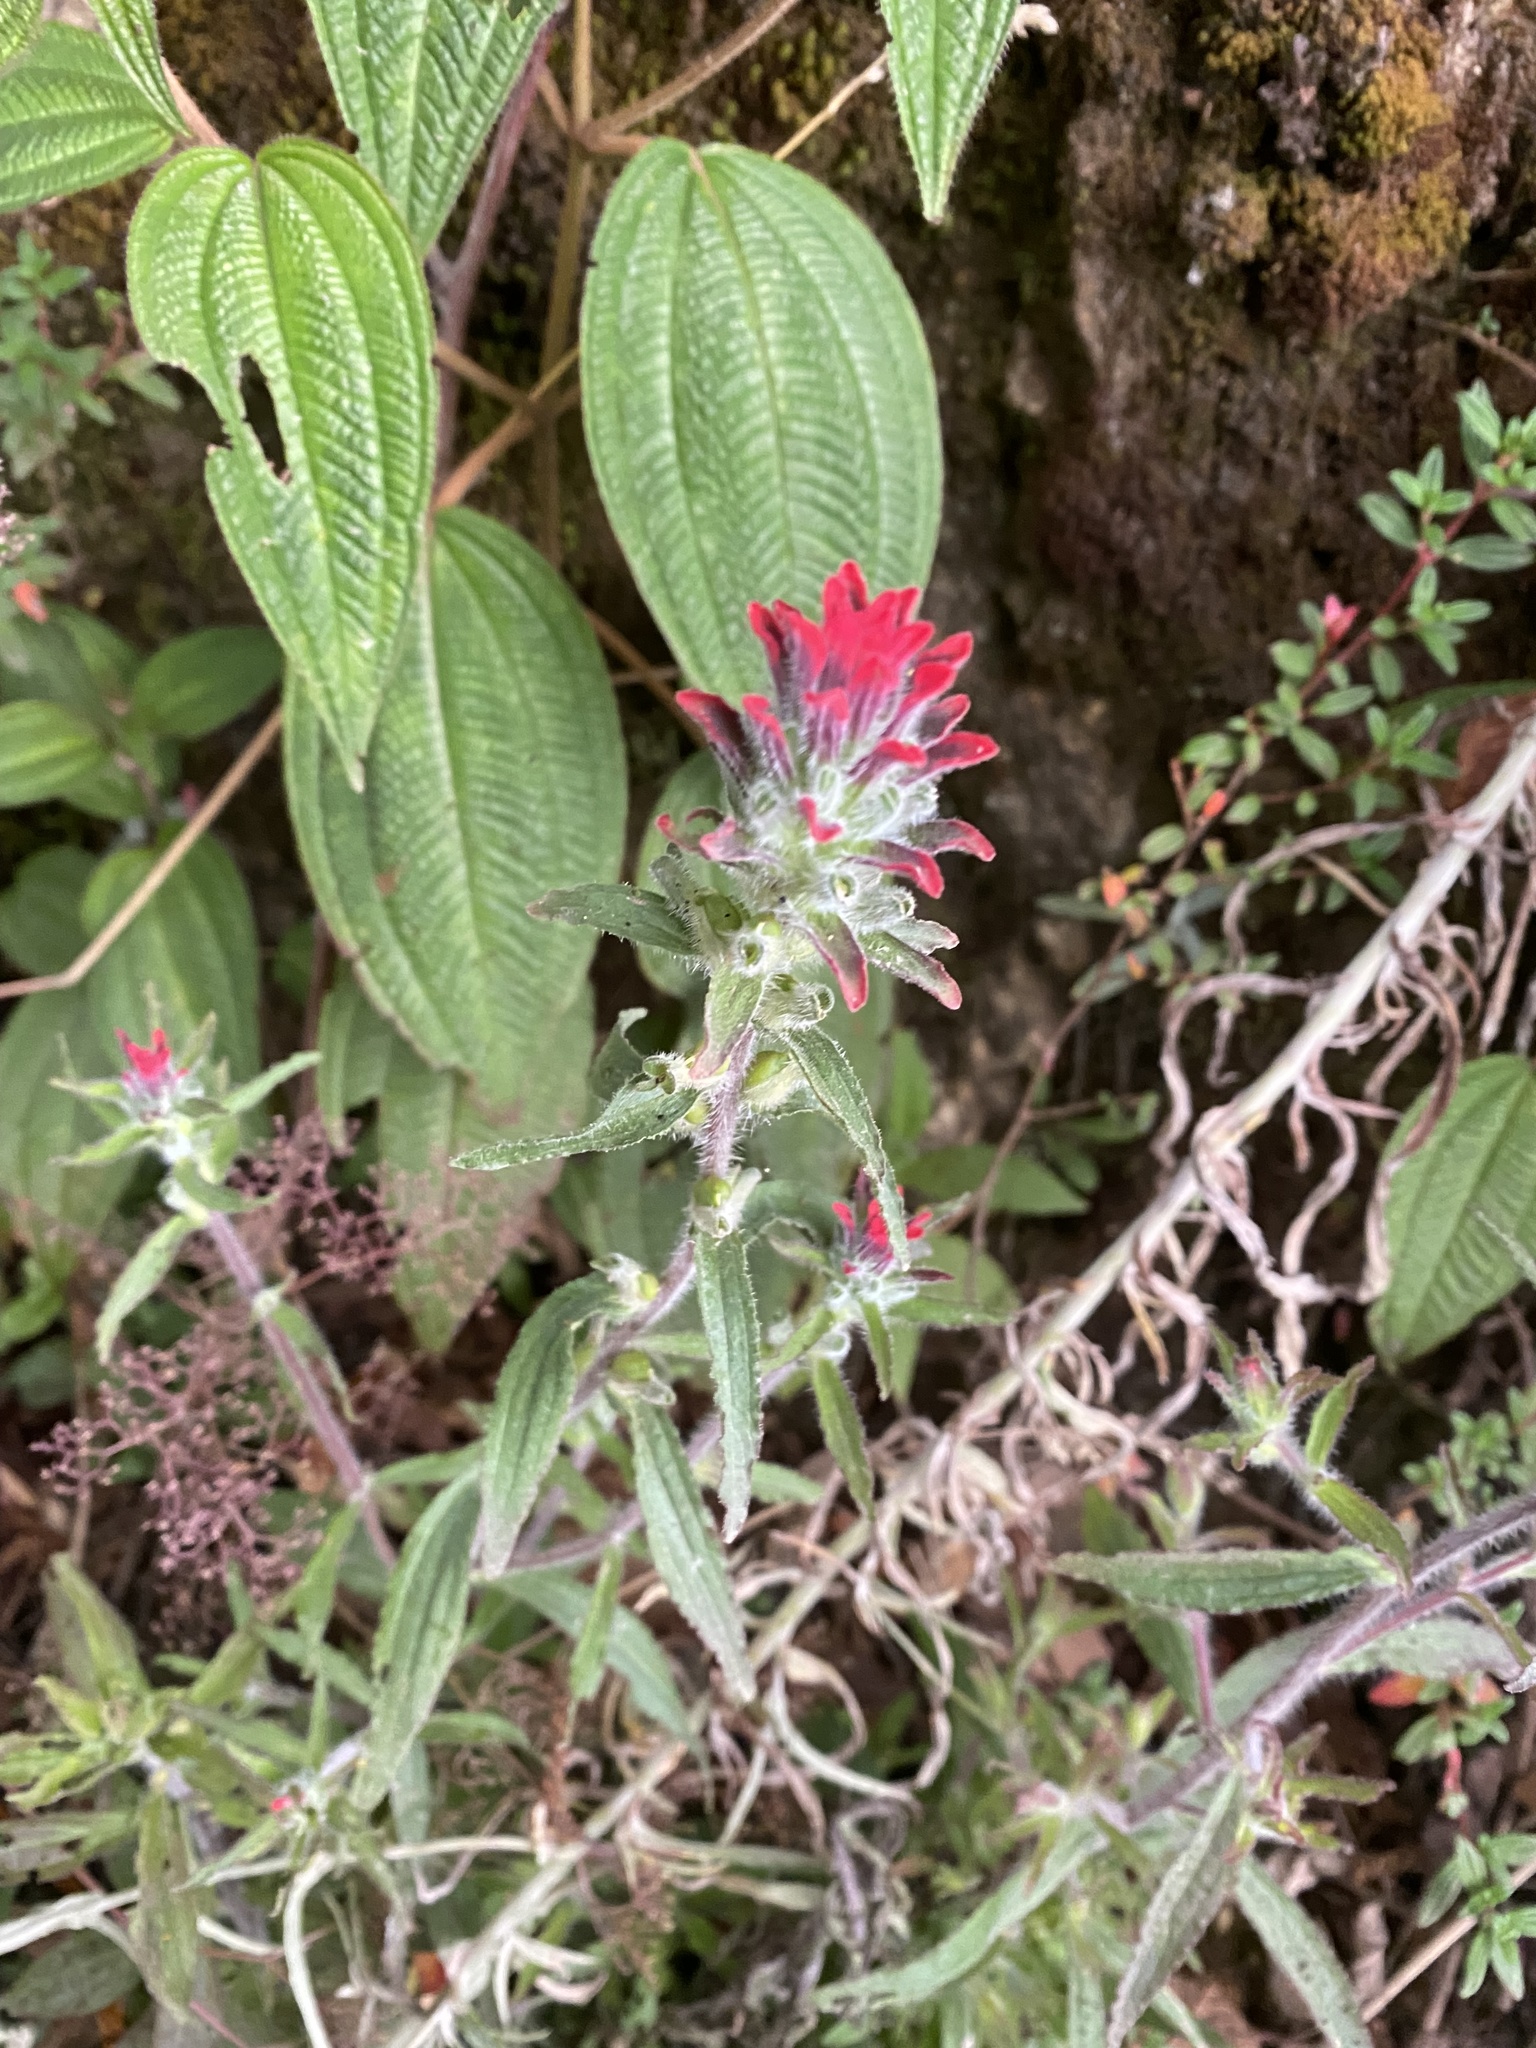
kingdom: Plantae
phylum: Tracheophyta
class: Magnoliopsida
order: Lamiales
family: Orobanchaceae
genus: Castilleja
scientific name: Castilleja arvensis
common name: Indian paintbrush
